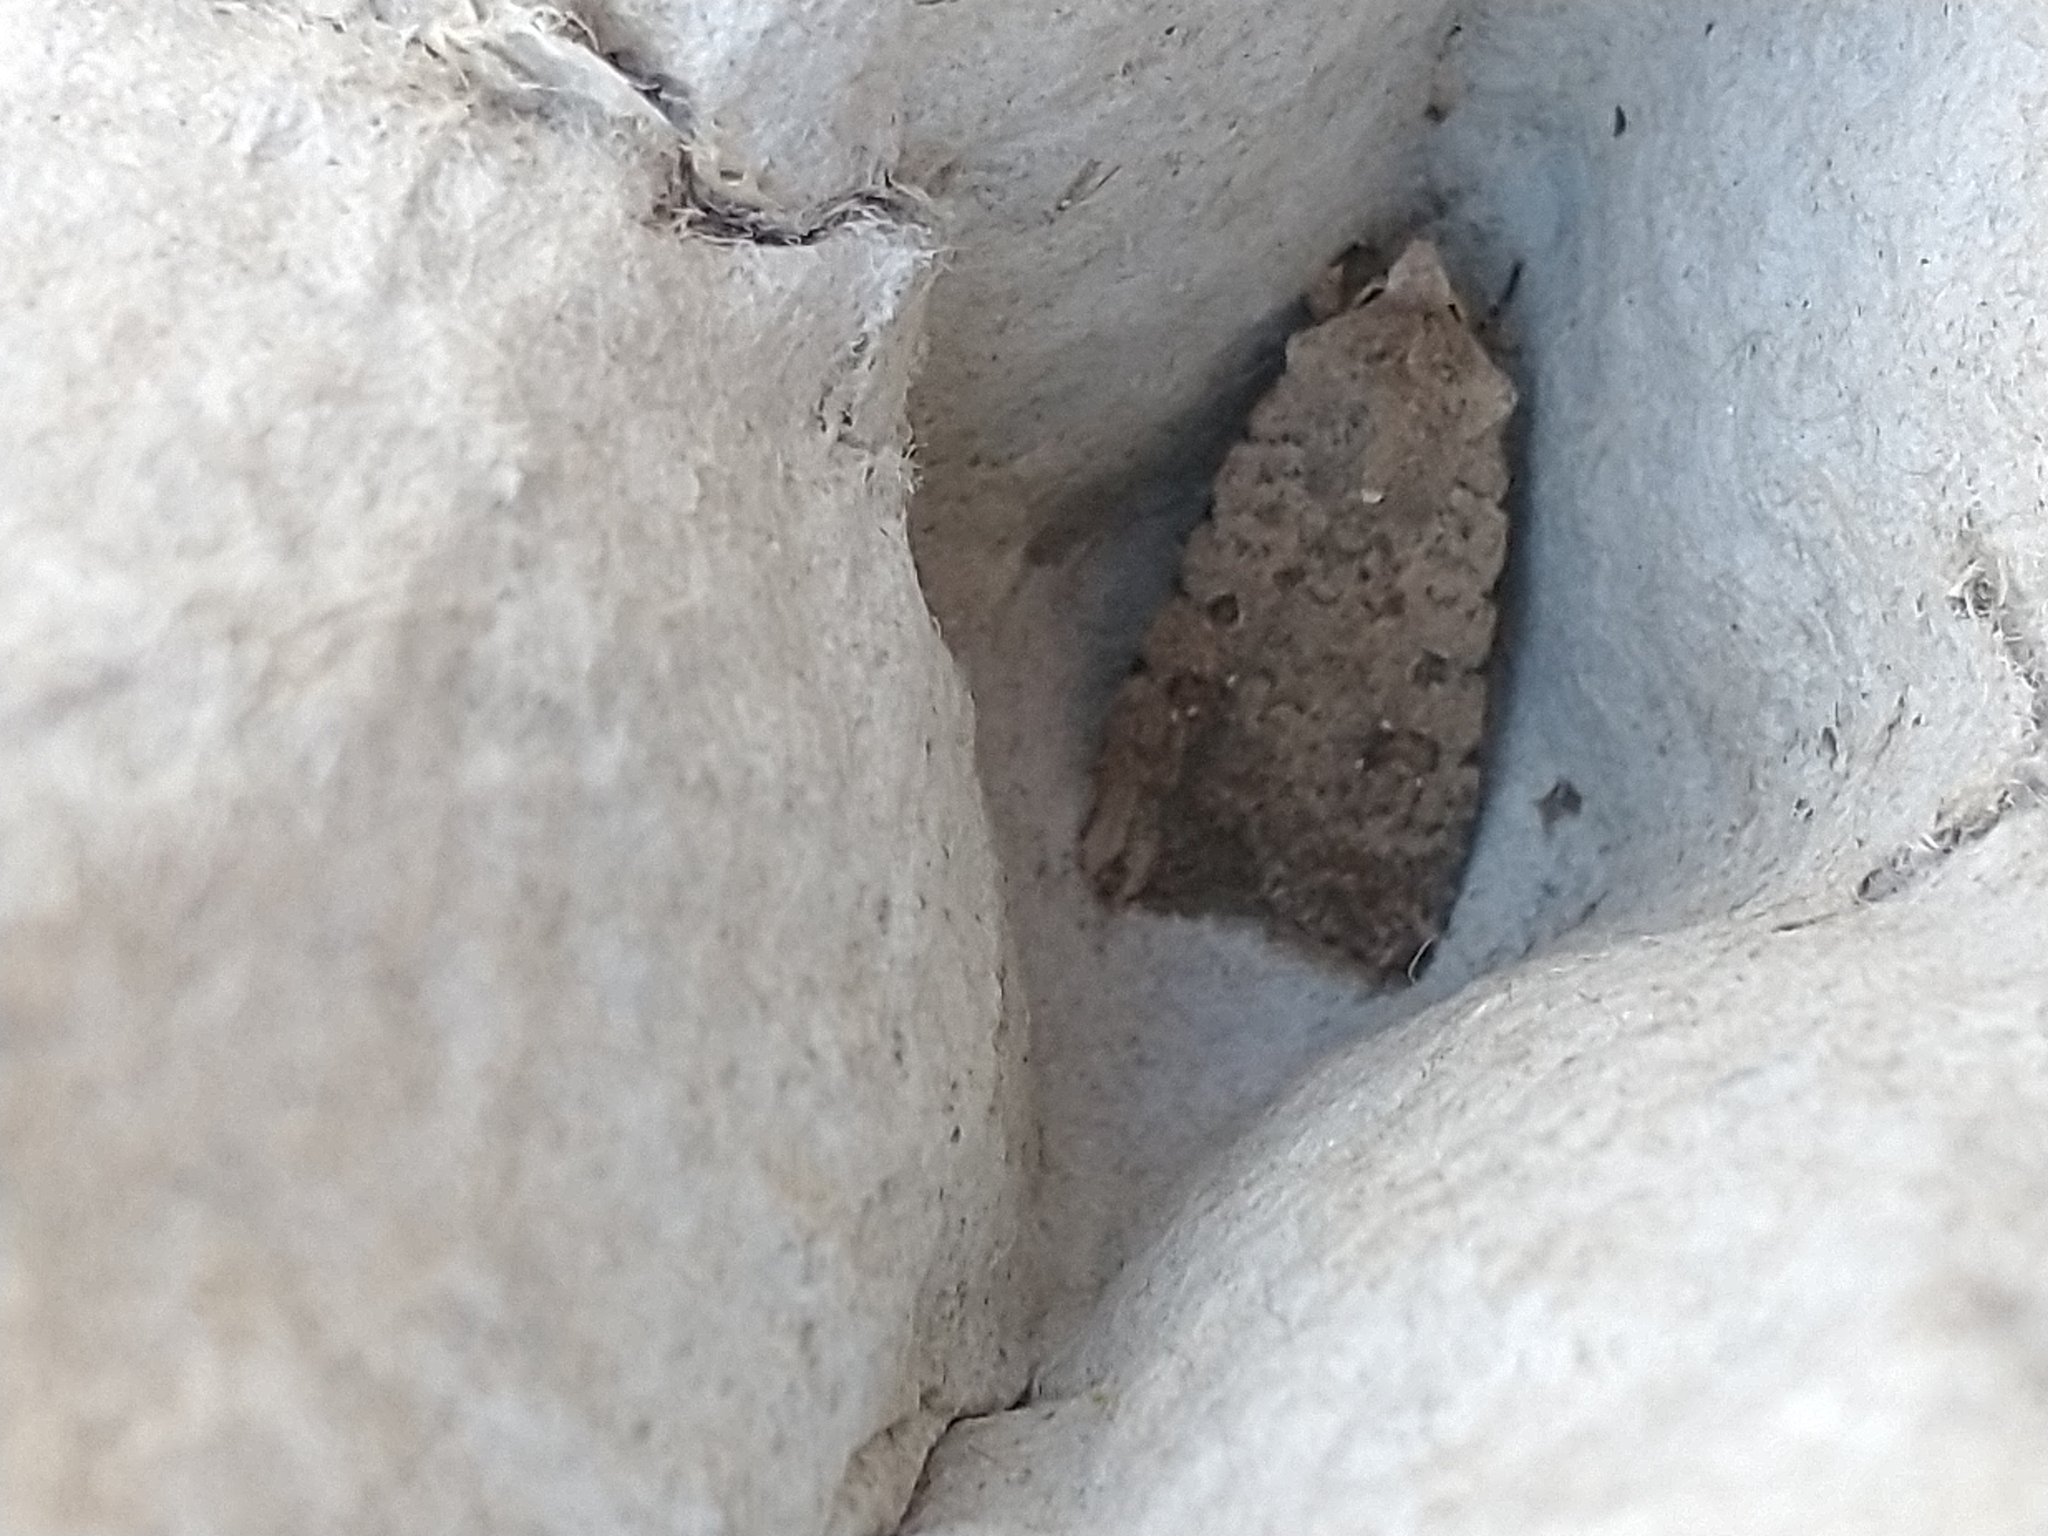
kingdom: Animalia
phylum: Arthropoda
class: Insecta
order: Lepidoptera
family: Noctuidae
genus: Caradrina
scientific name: Caradrina clavipalpis
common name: Pale mottled willow
